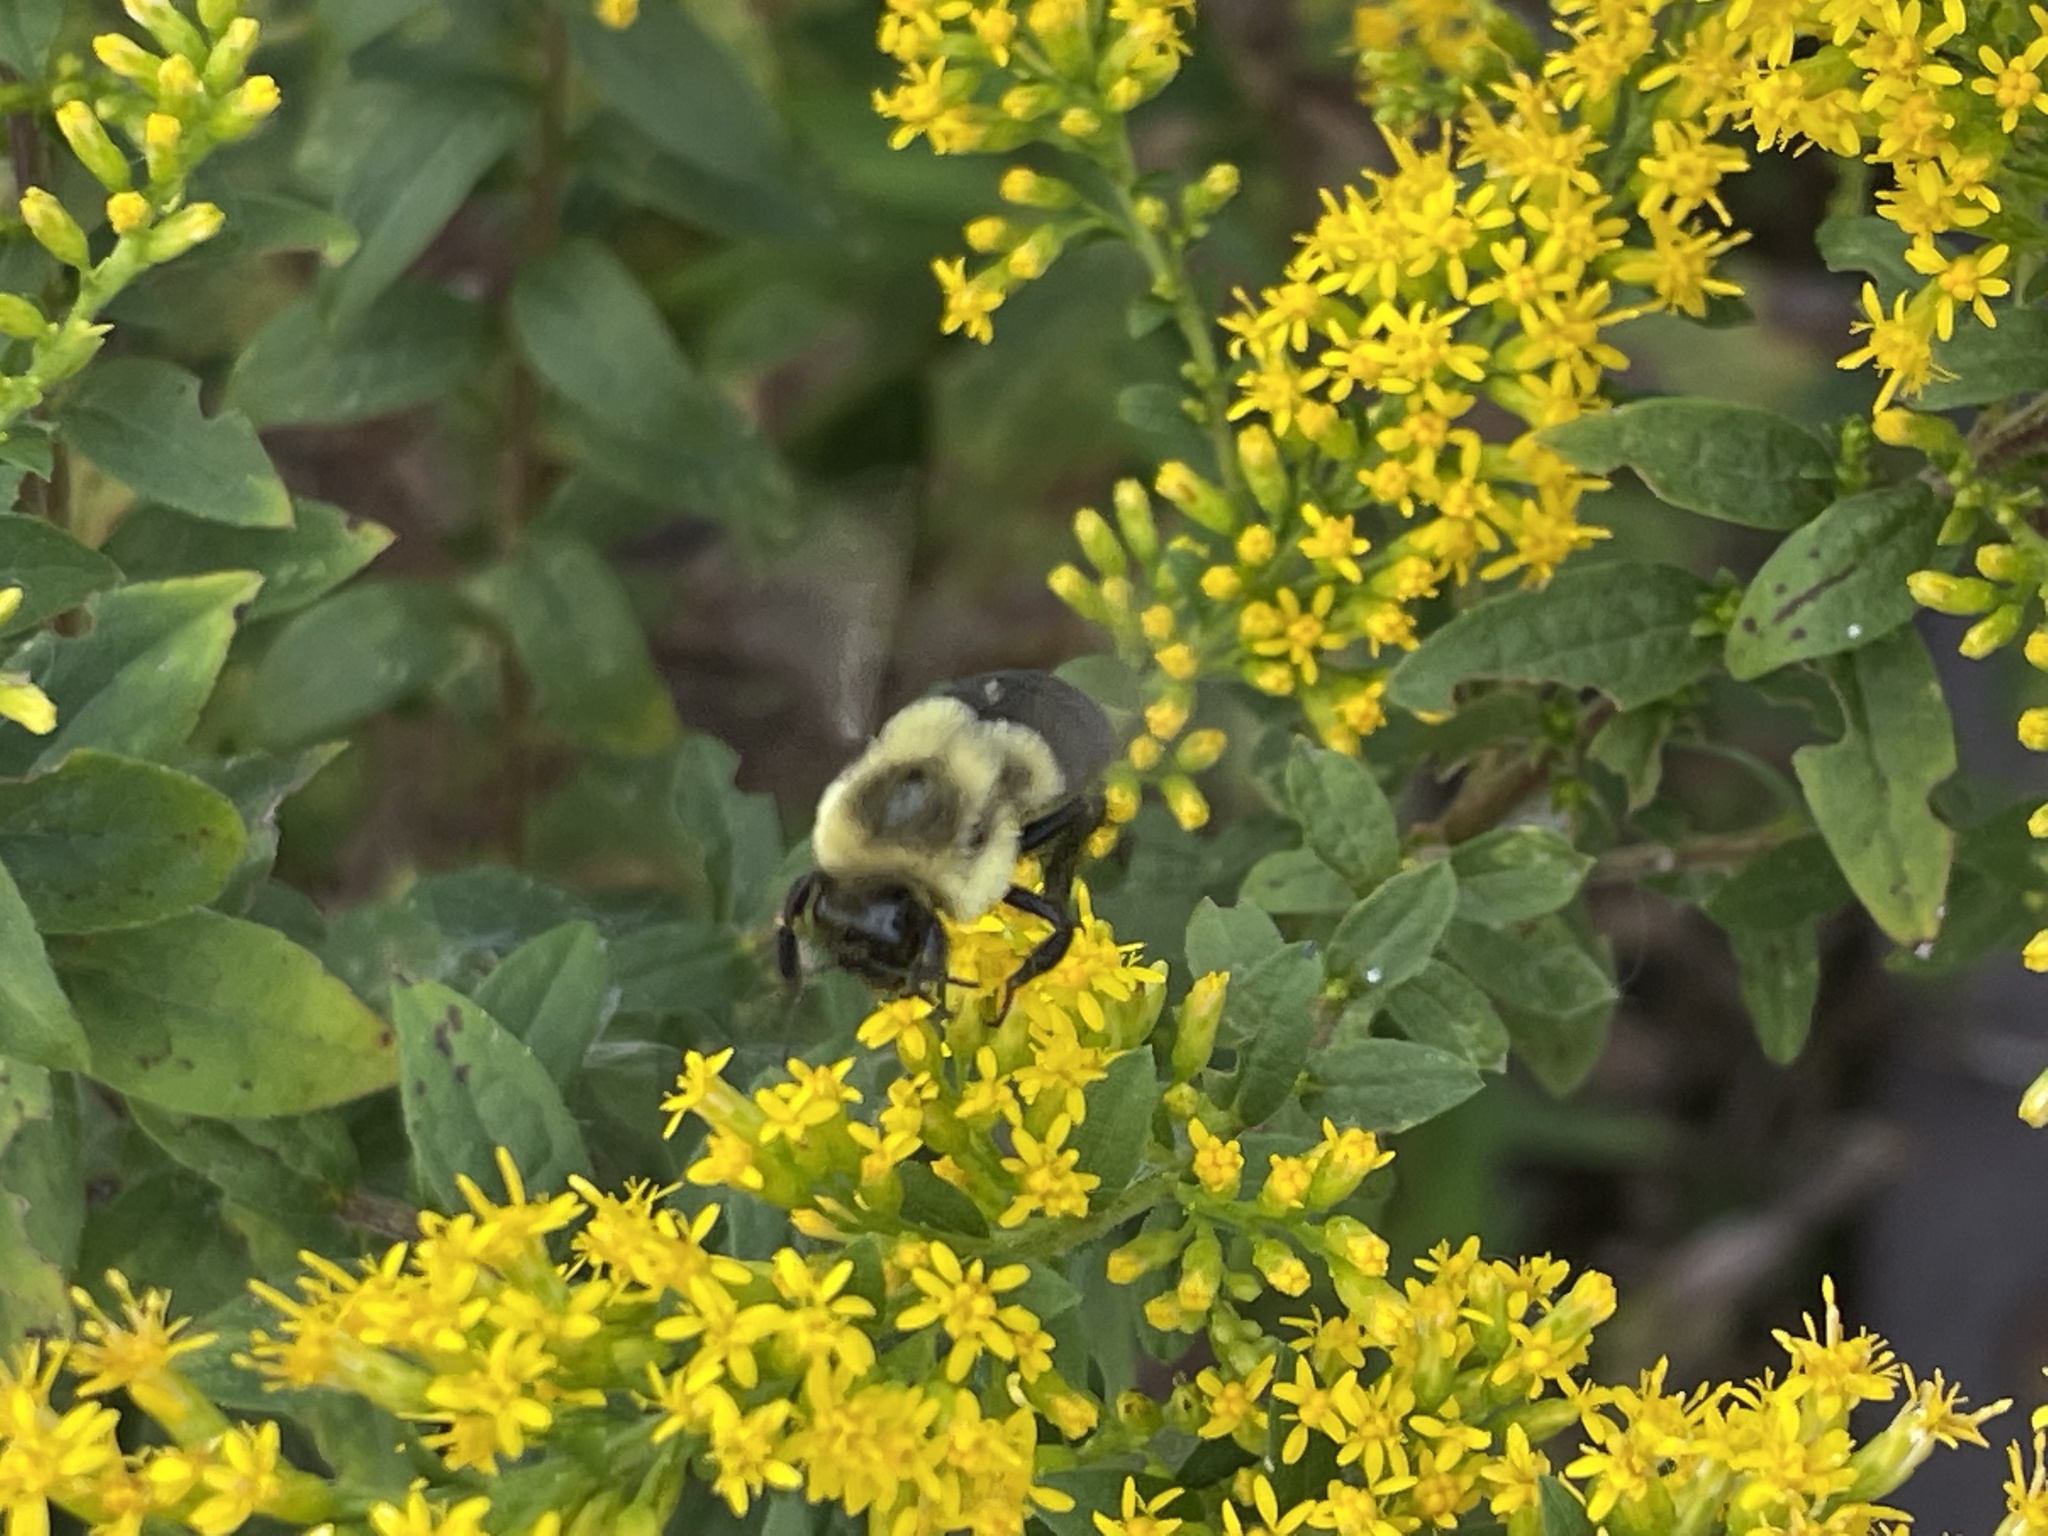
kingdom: Animalia
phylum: Arthropoda
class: Insecta
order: Hymenoptera
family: Apidae
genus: Bombus
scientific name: Bombus impatiens
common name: Common eastern bumble bee
